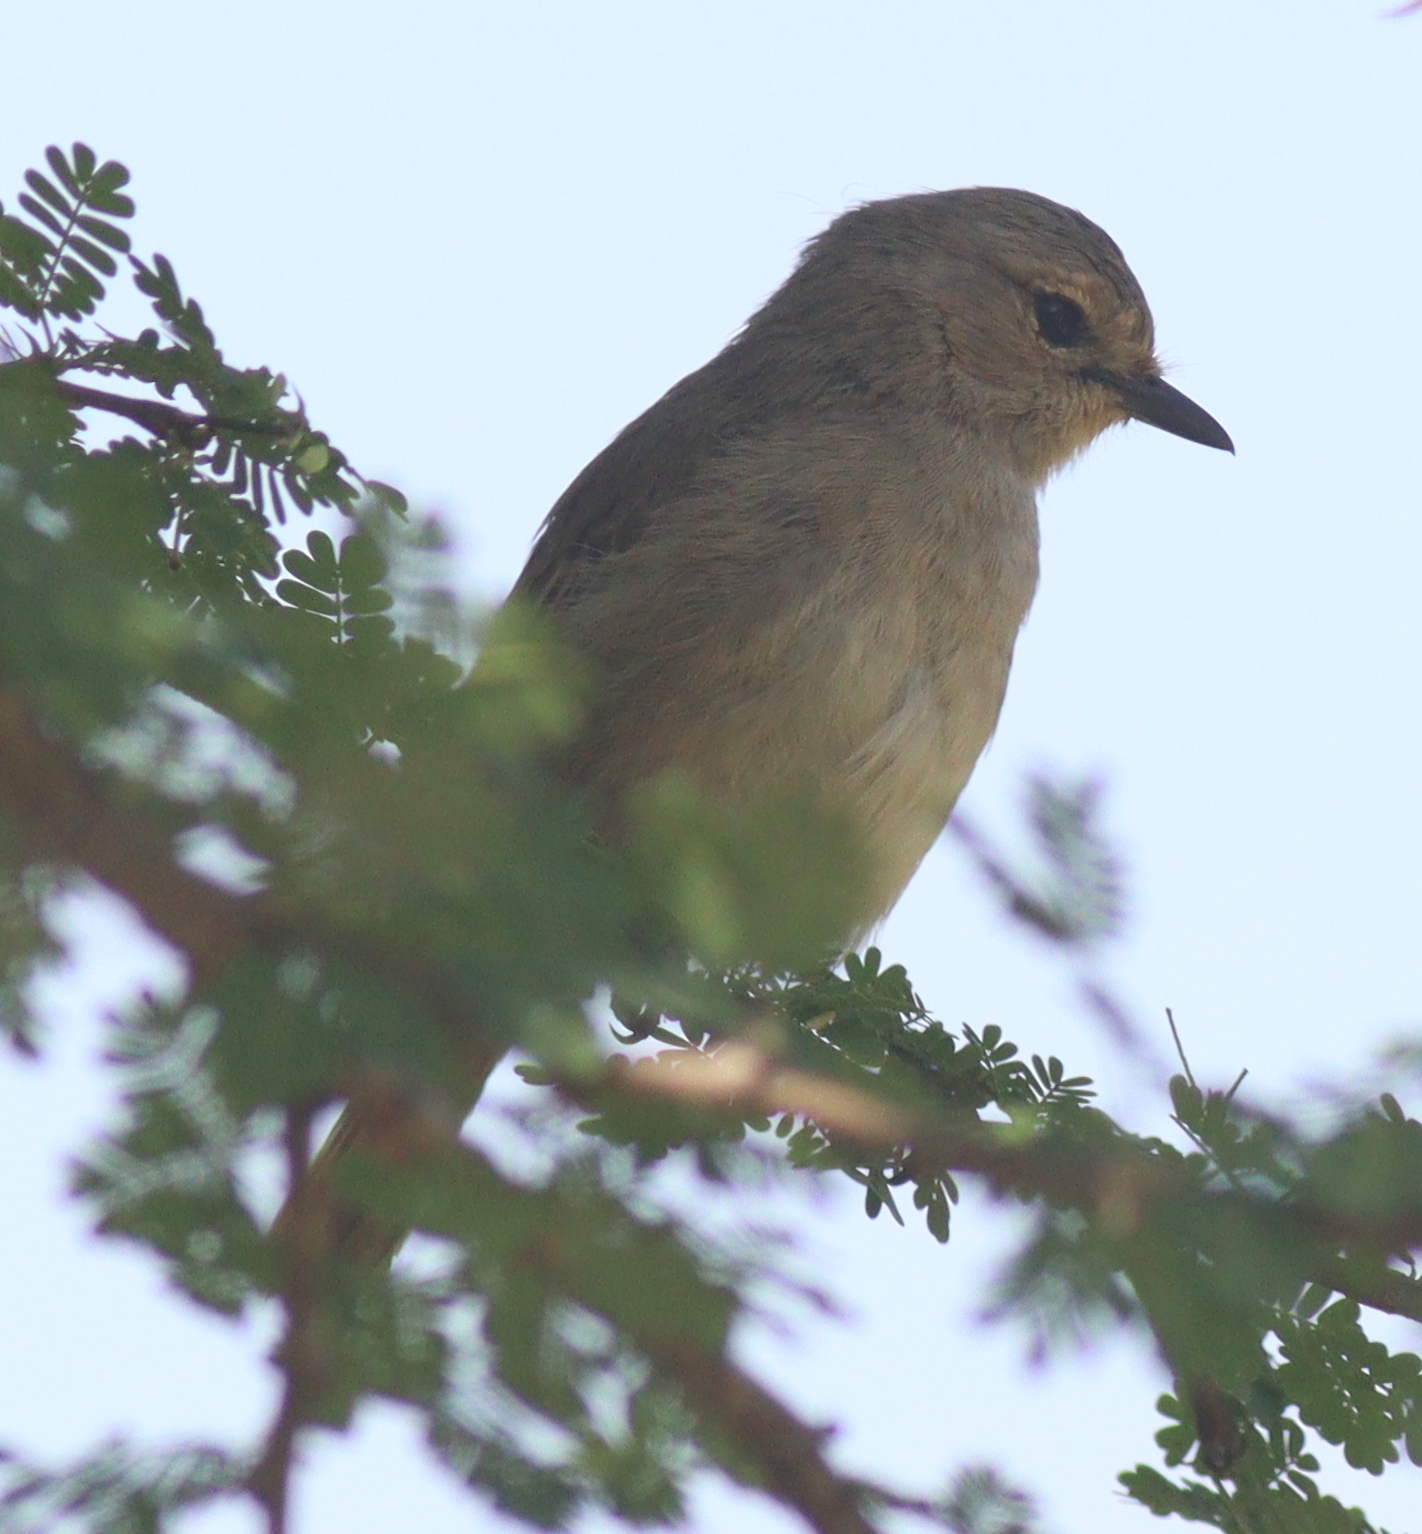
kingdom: Animalia
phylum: Chordata
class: Aves
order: Passeriformes
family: Muscicapidae
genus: Bradornis
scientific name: Bradornis microrhynchus
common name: African grey flycatcher
